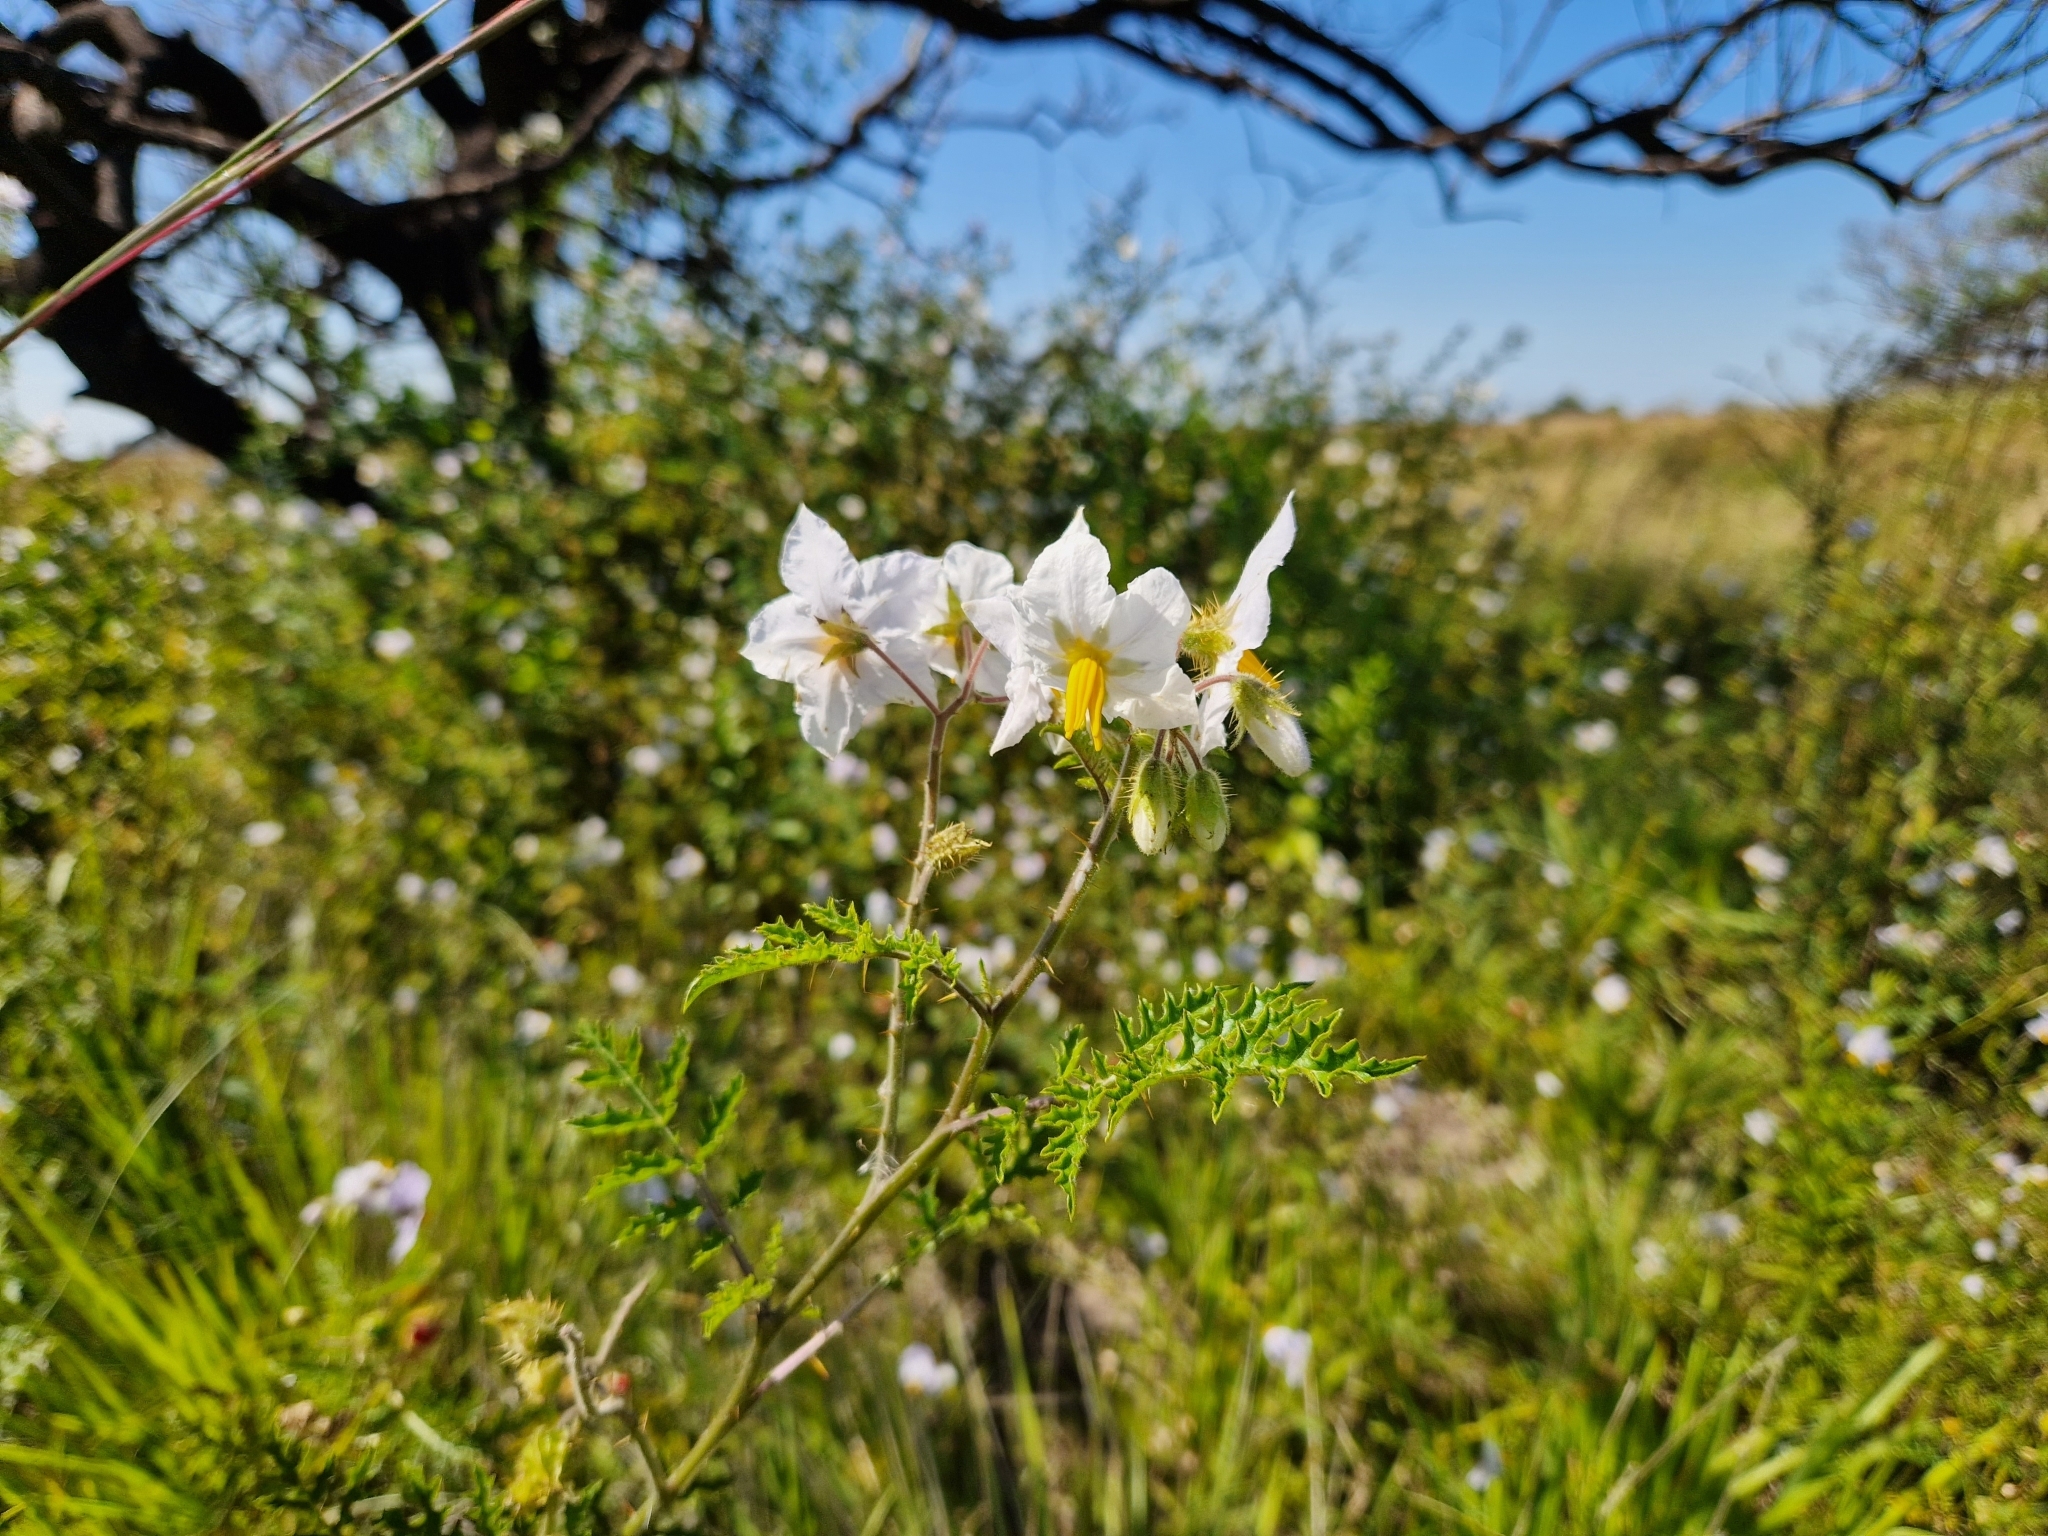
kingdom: Plantae
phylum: Tracheophyta
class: Magnoliopsida
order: Solanales
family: Solanaceae
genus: Solanum
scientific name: Solanum sisymbriifolium
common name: Red buffalo-bur
